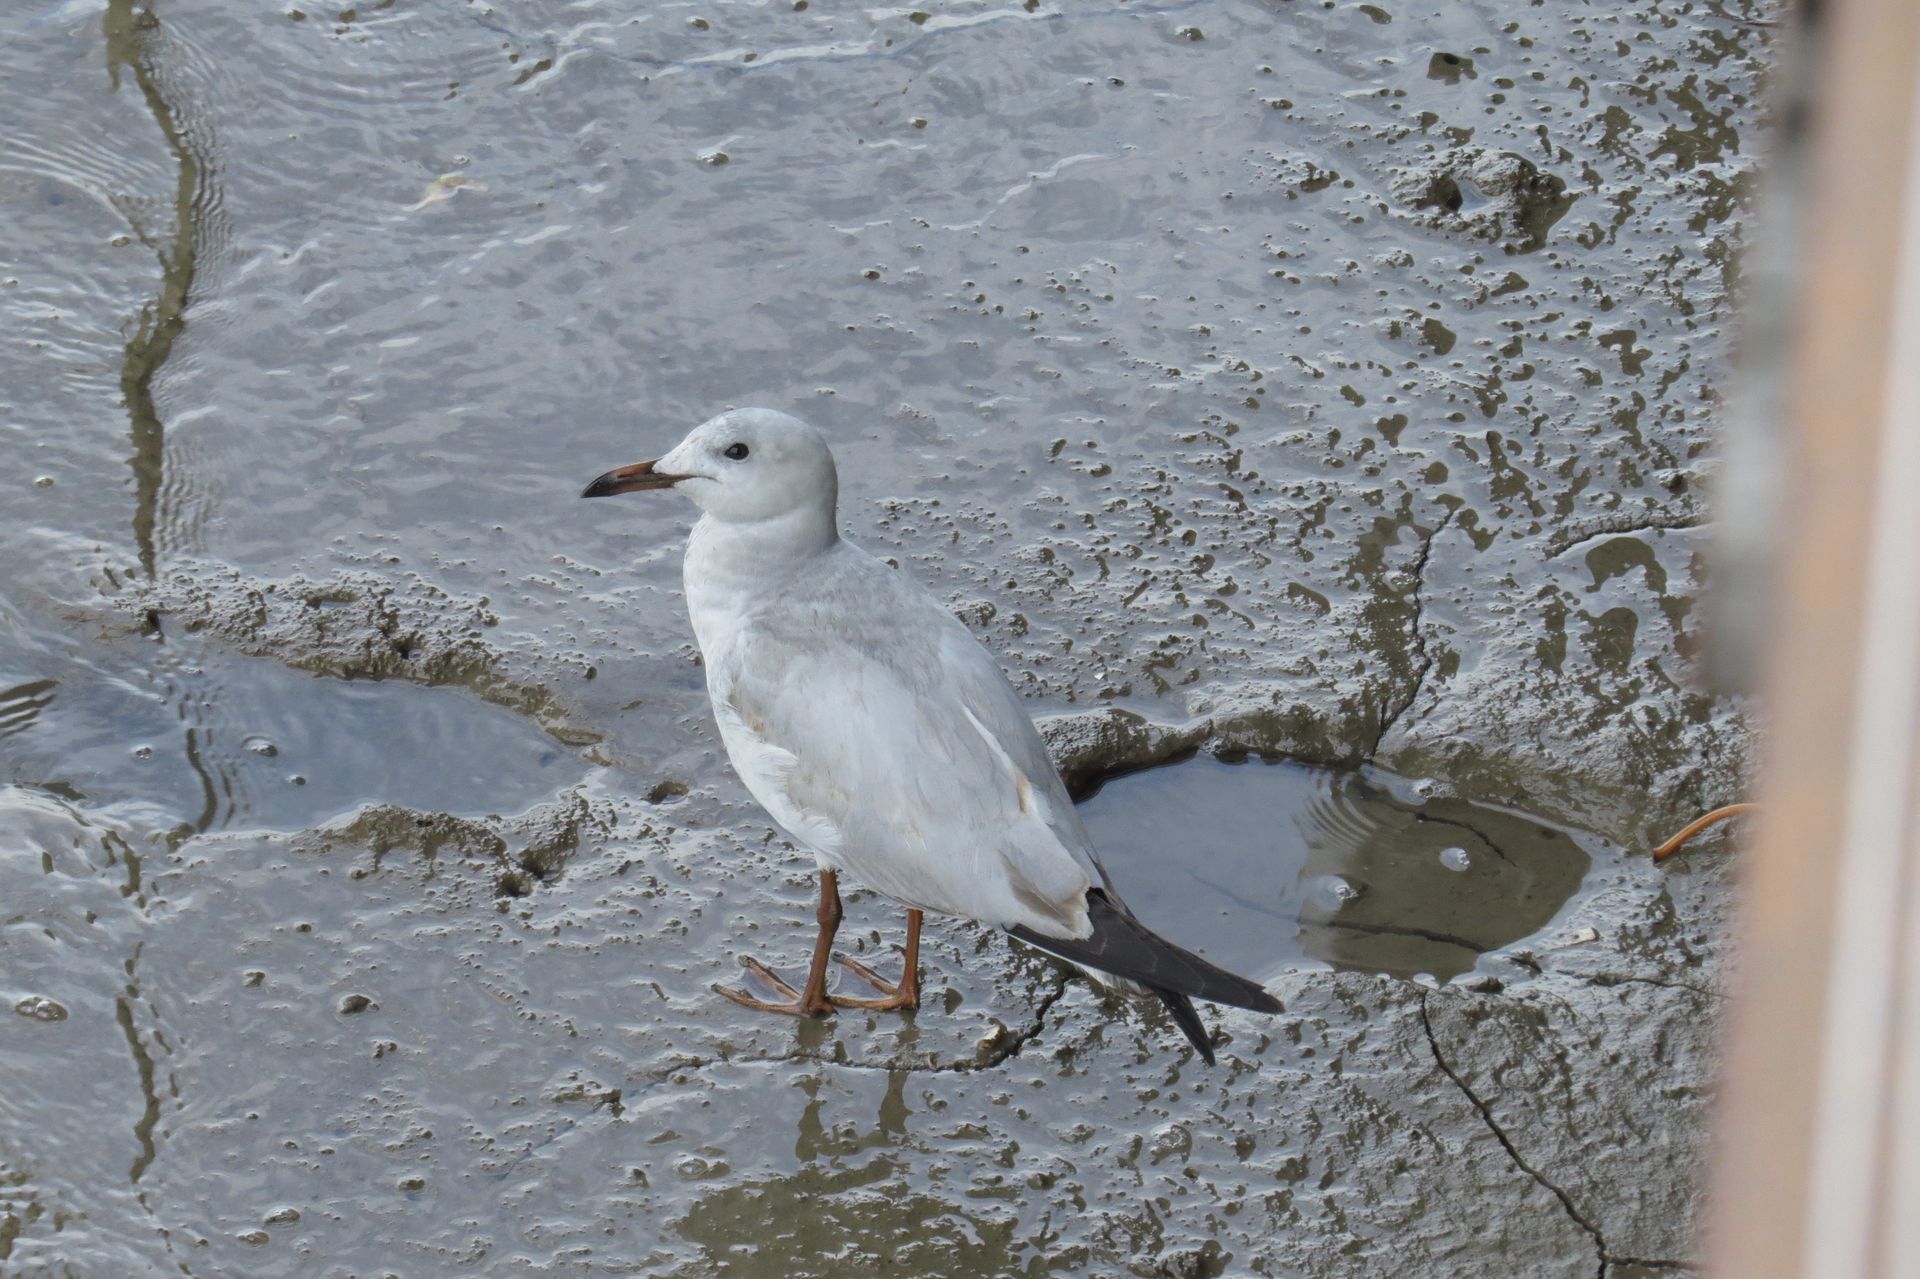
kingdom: Animalia
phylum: Chordata
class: Aves
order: Charadriiformes
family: Laridae
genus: Chroicocephalus
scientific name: Chroicocephalus novaehollandiae
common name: Silver gull
